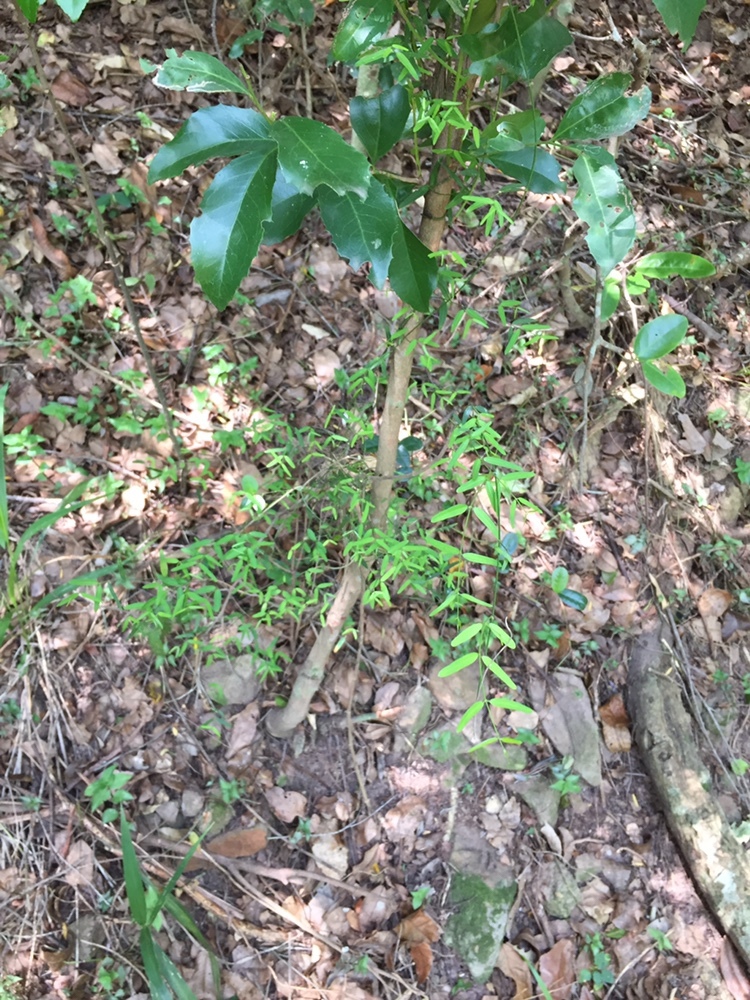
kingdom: Plantae
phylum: Tracheophyta
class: Magnoliopsida
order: Gentianales
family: Apocynaceae
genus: Secamone
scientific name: Secamone filiformis
